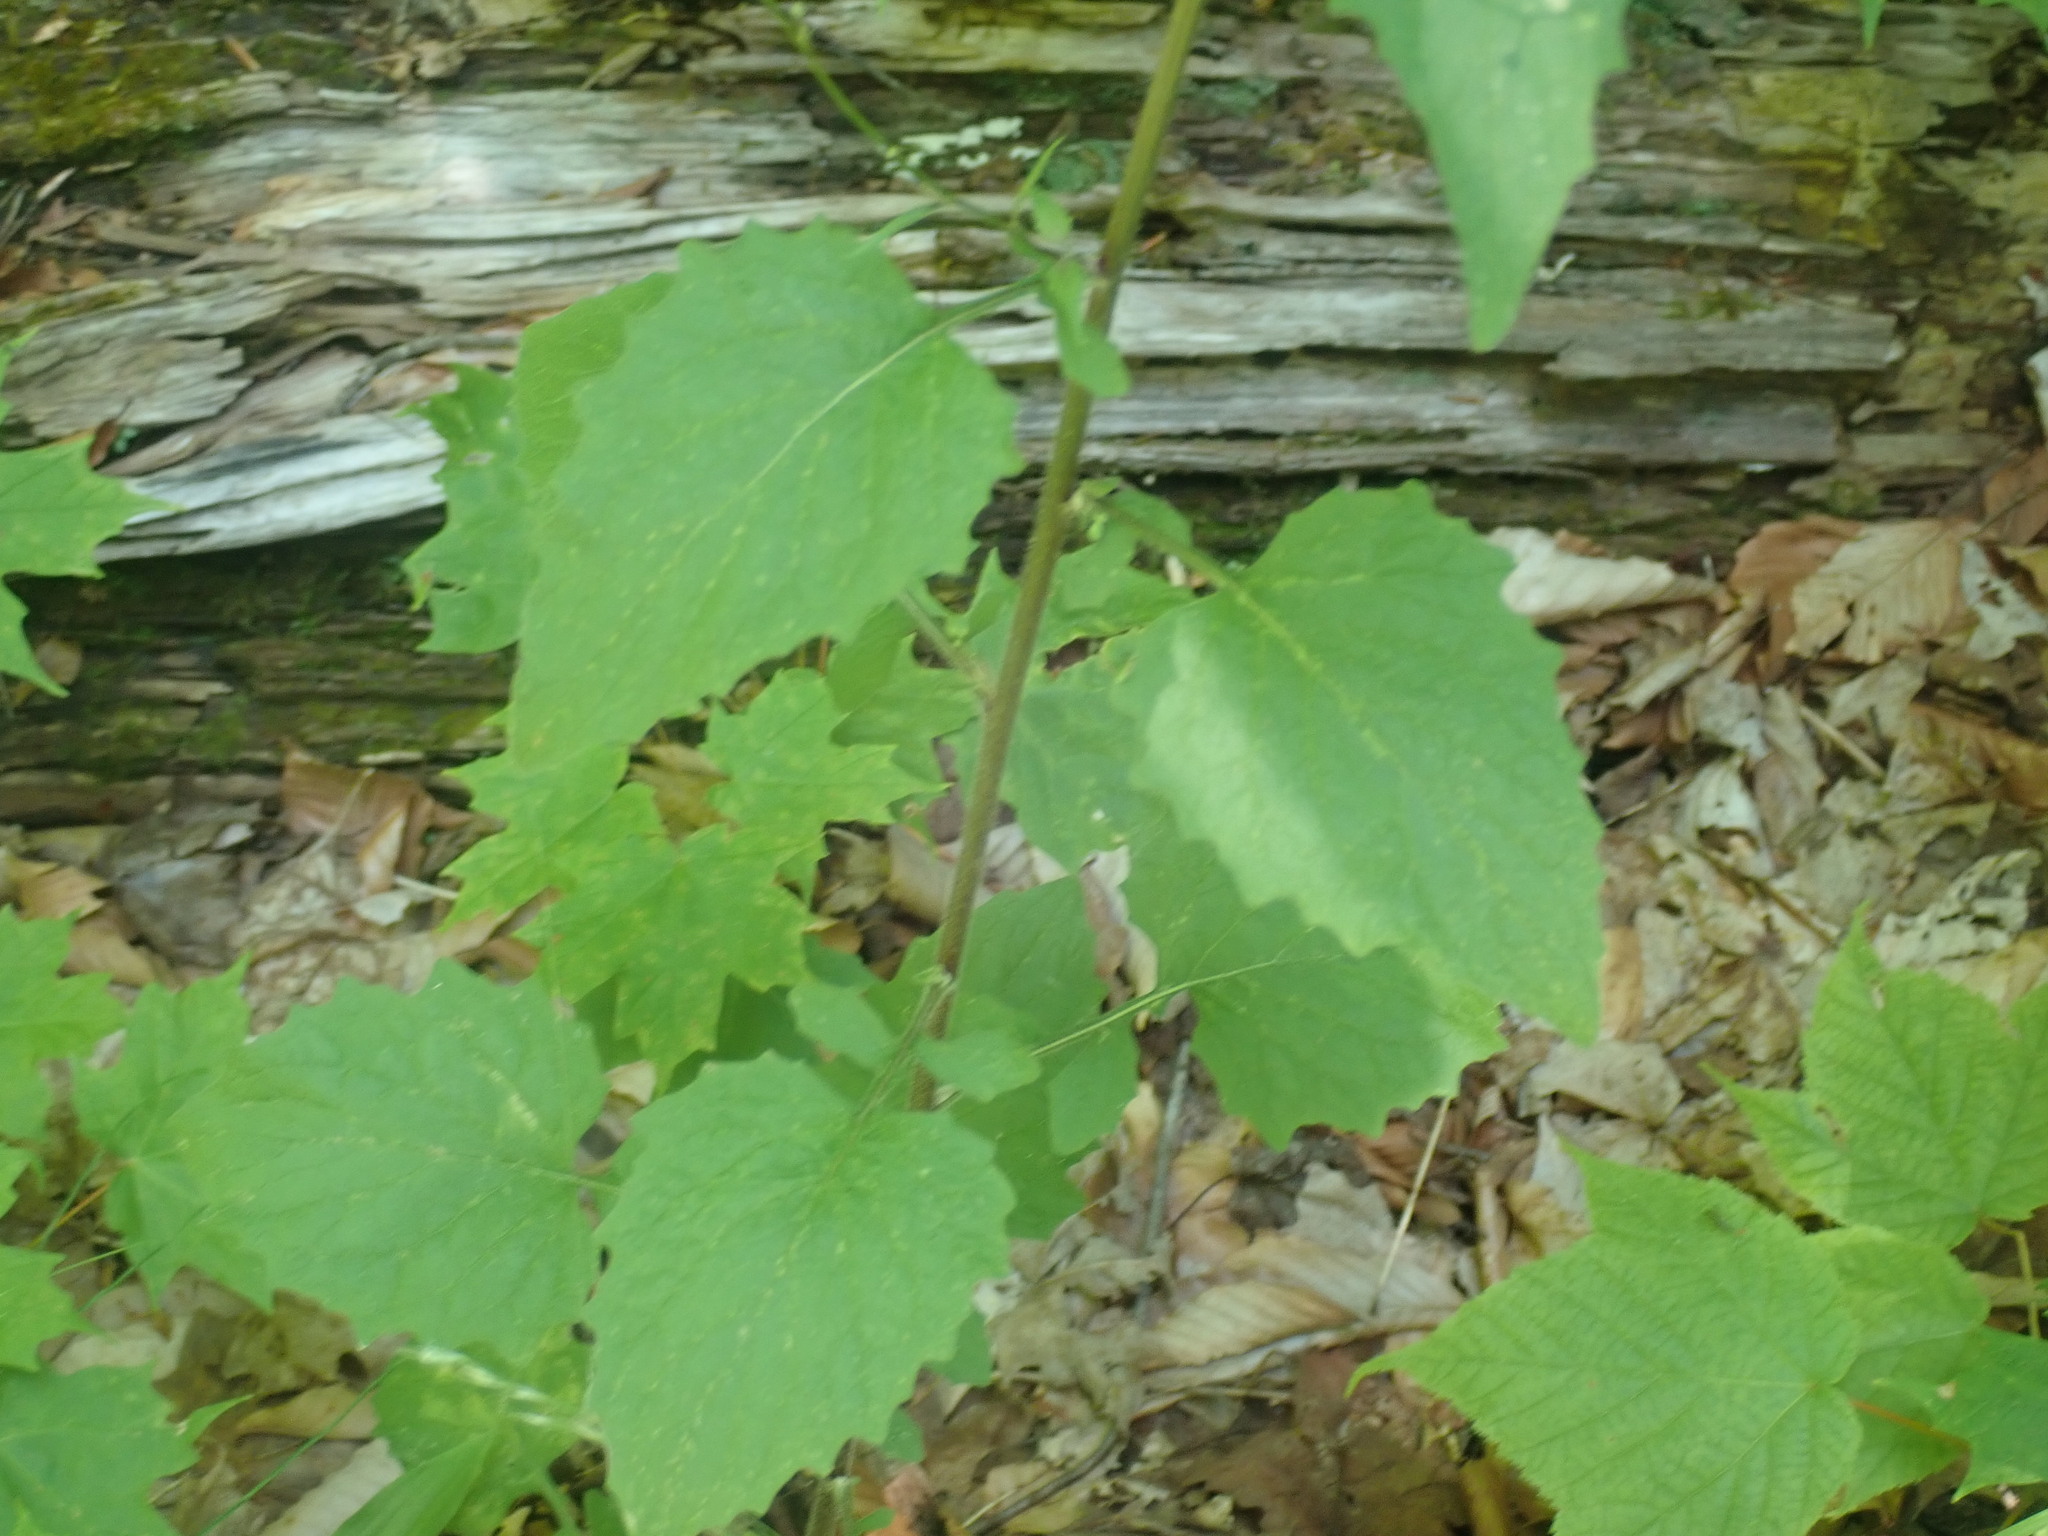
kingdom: Plantae
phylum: Tracheophyta
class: Magnoliopsida
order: Asterales
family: Asteraceae
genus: Lapsana
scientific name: Lapsana communis
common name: Nipplewort
